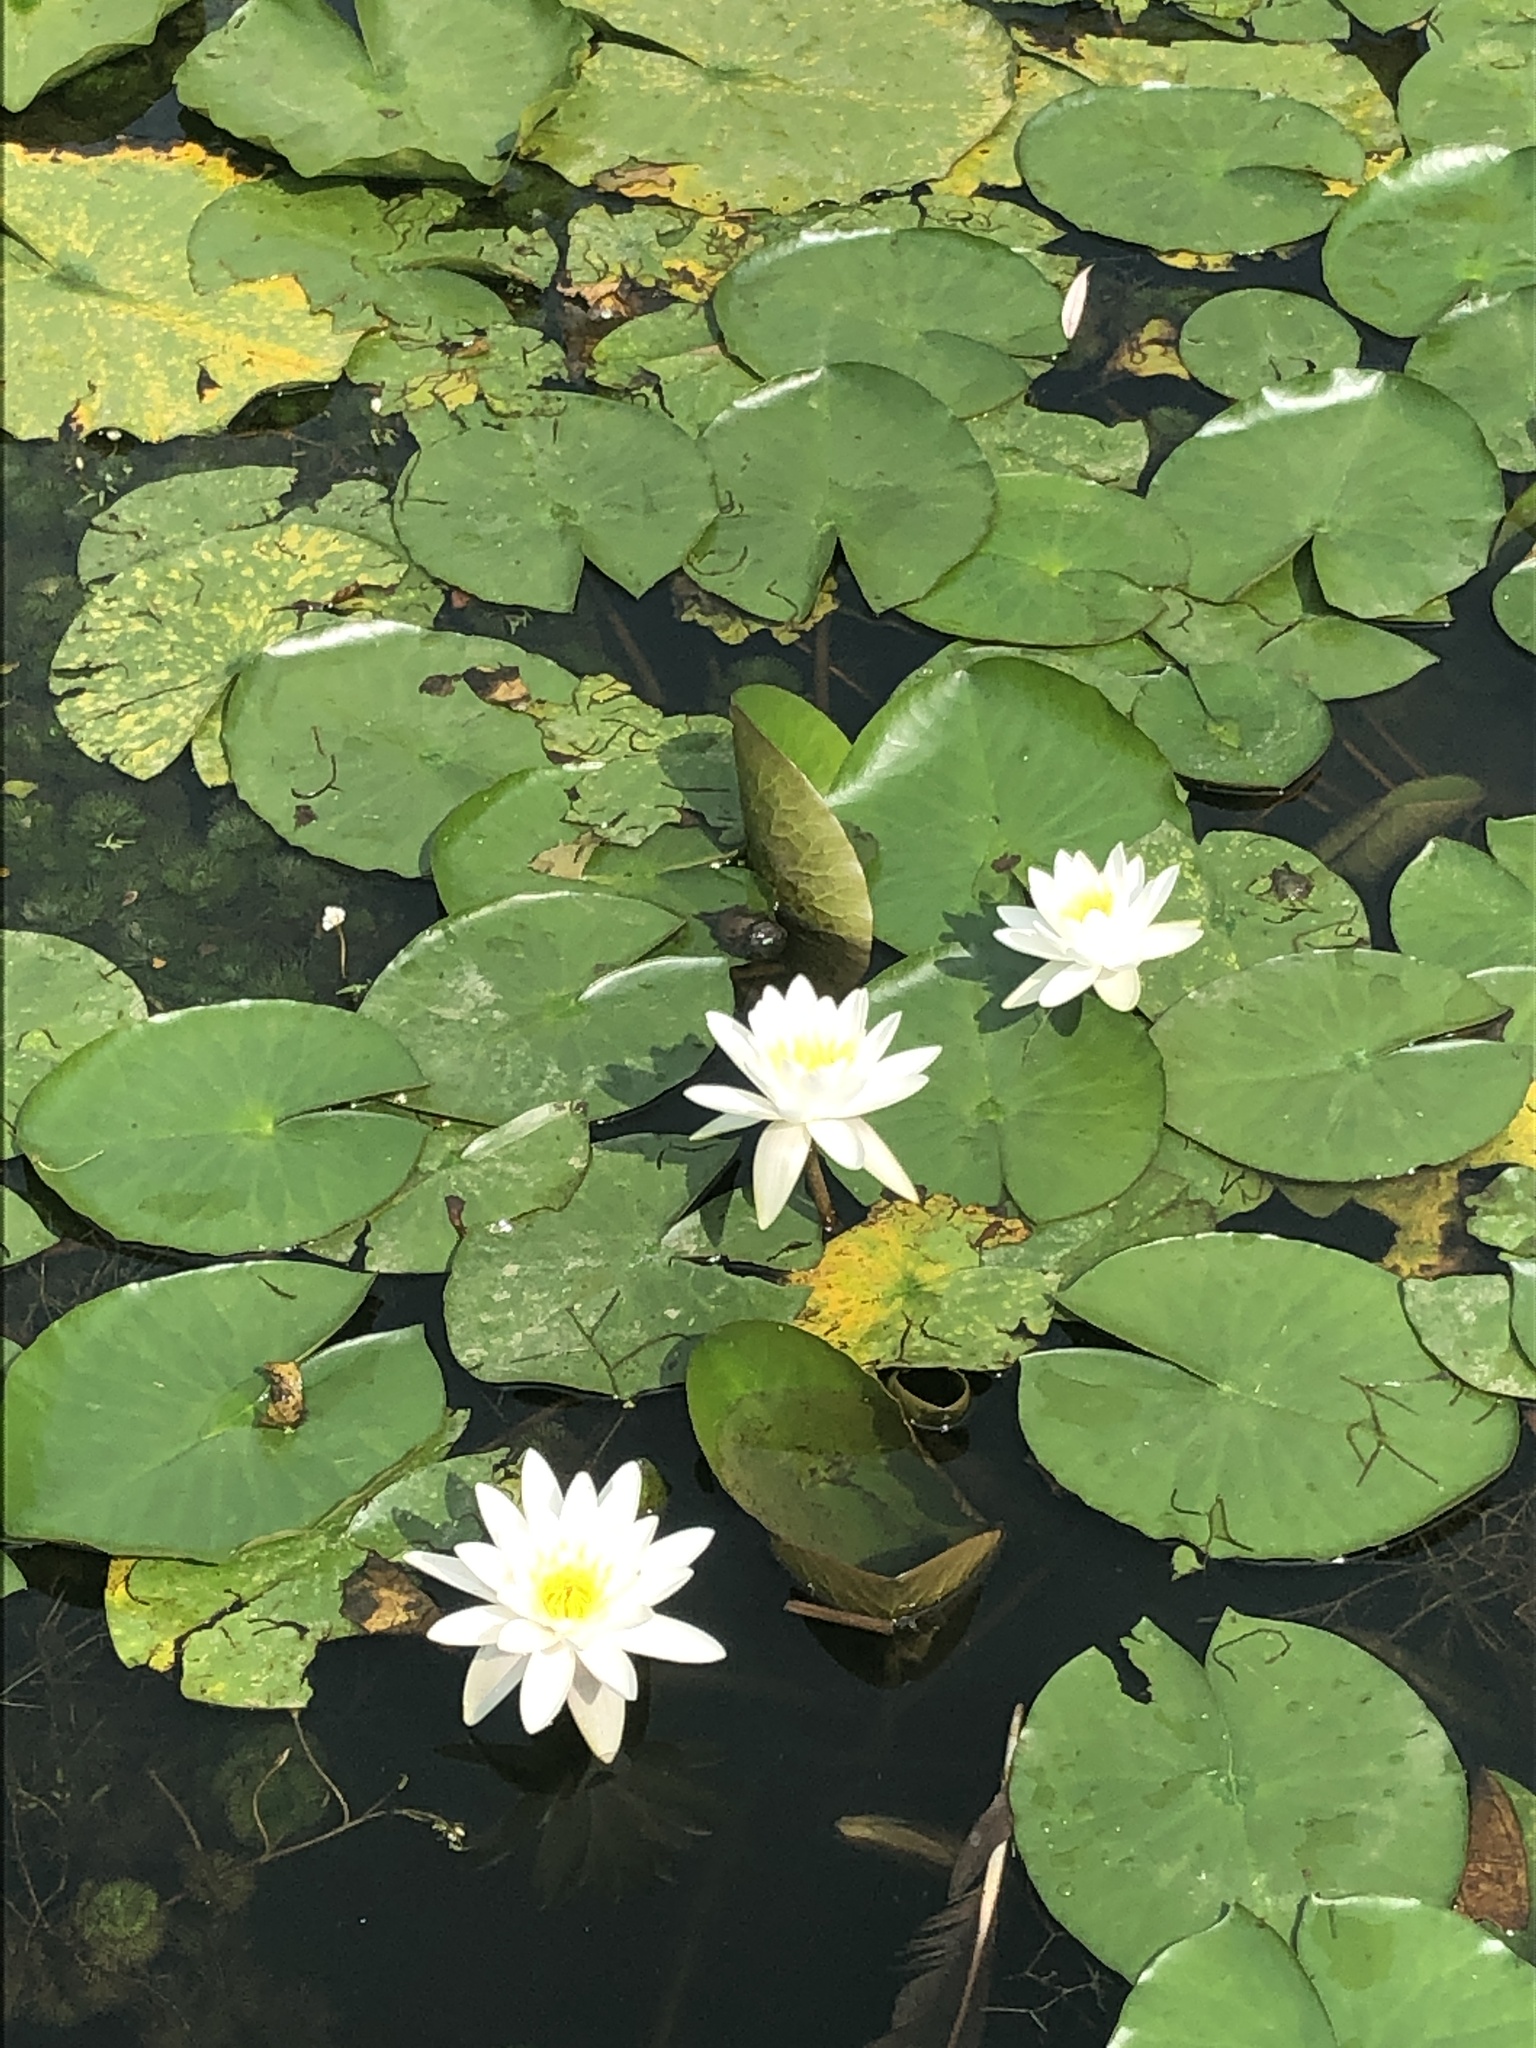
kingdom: Plantae
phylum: Tracheophyta
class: Magnoliopsida
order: Nymphaeales
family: Nymphaeaceae
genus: Nymphaea
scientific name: Nymphaea odorata
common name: Fragrant water-lily
